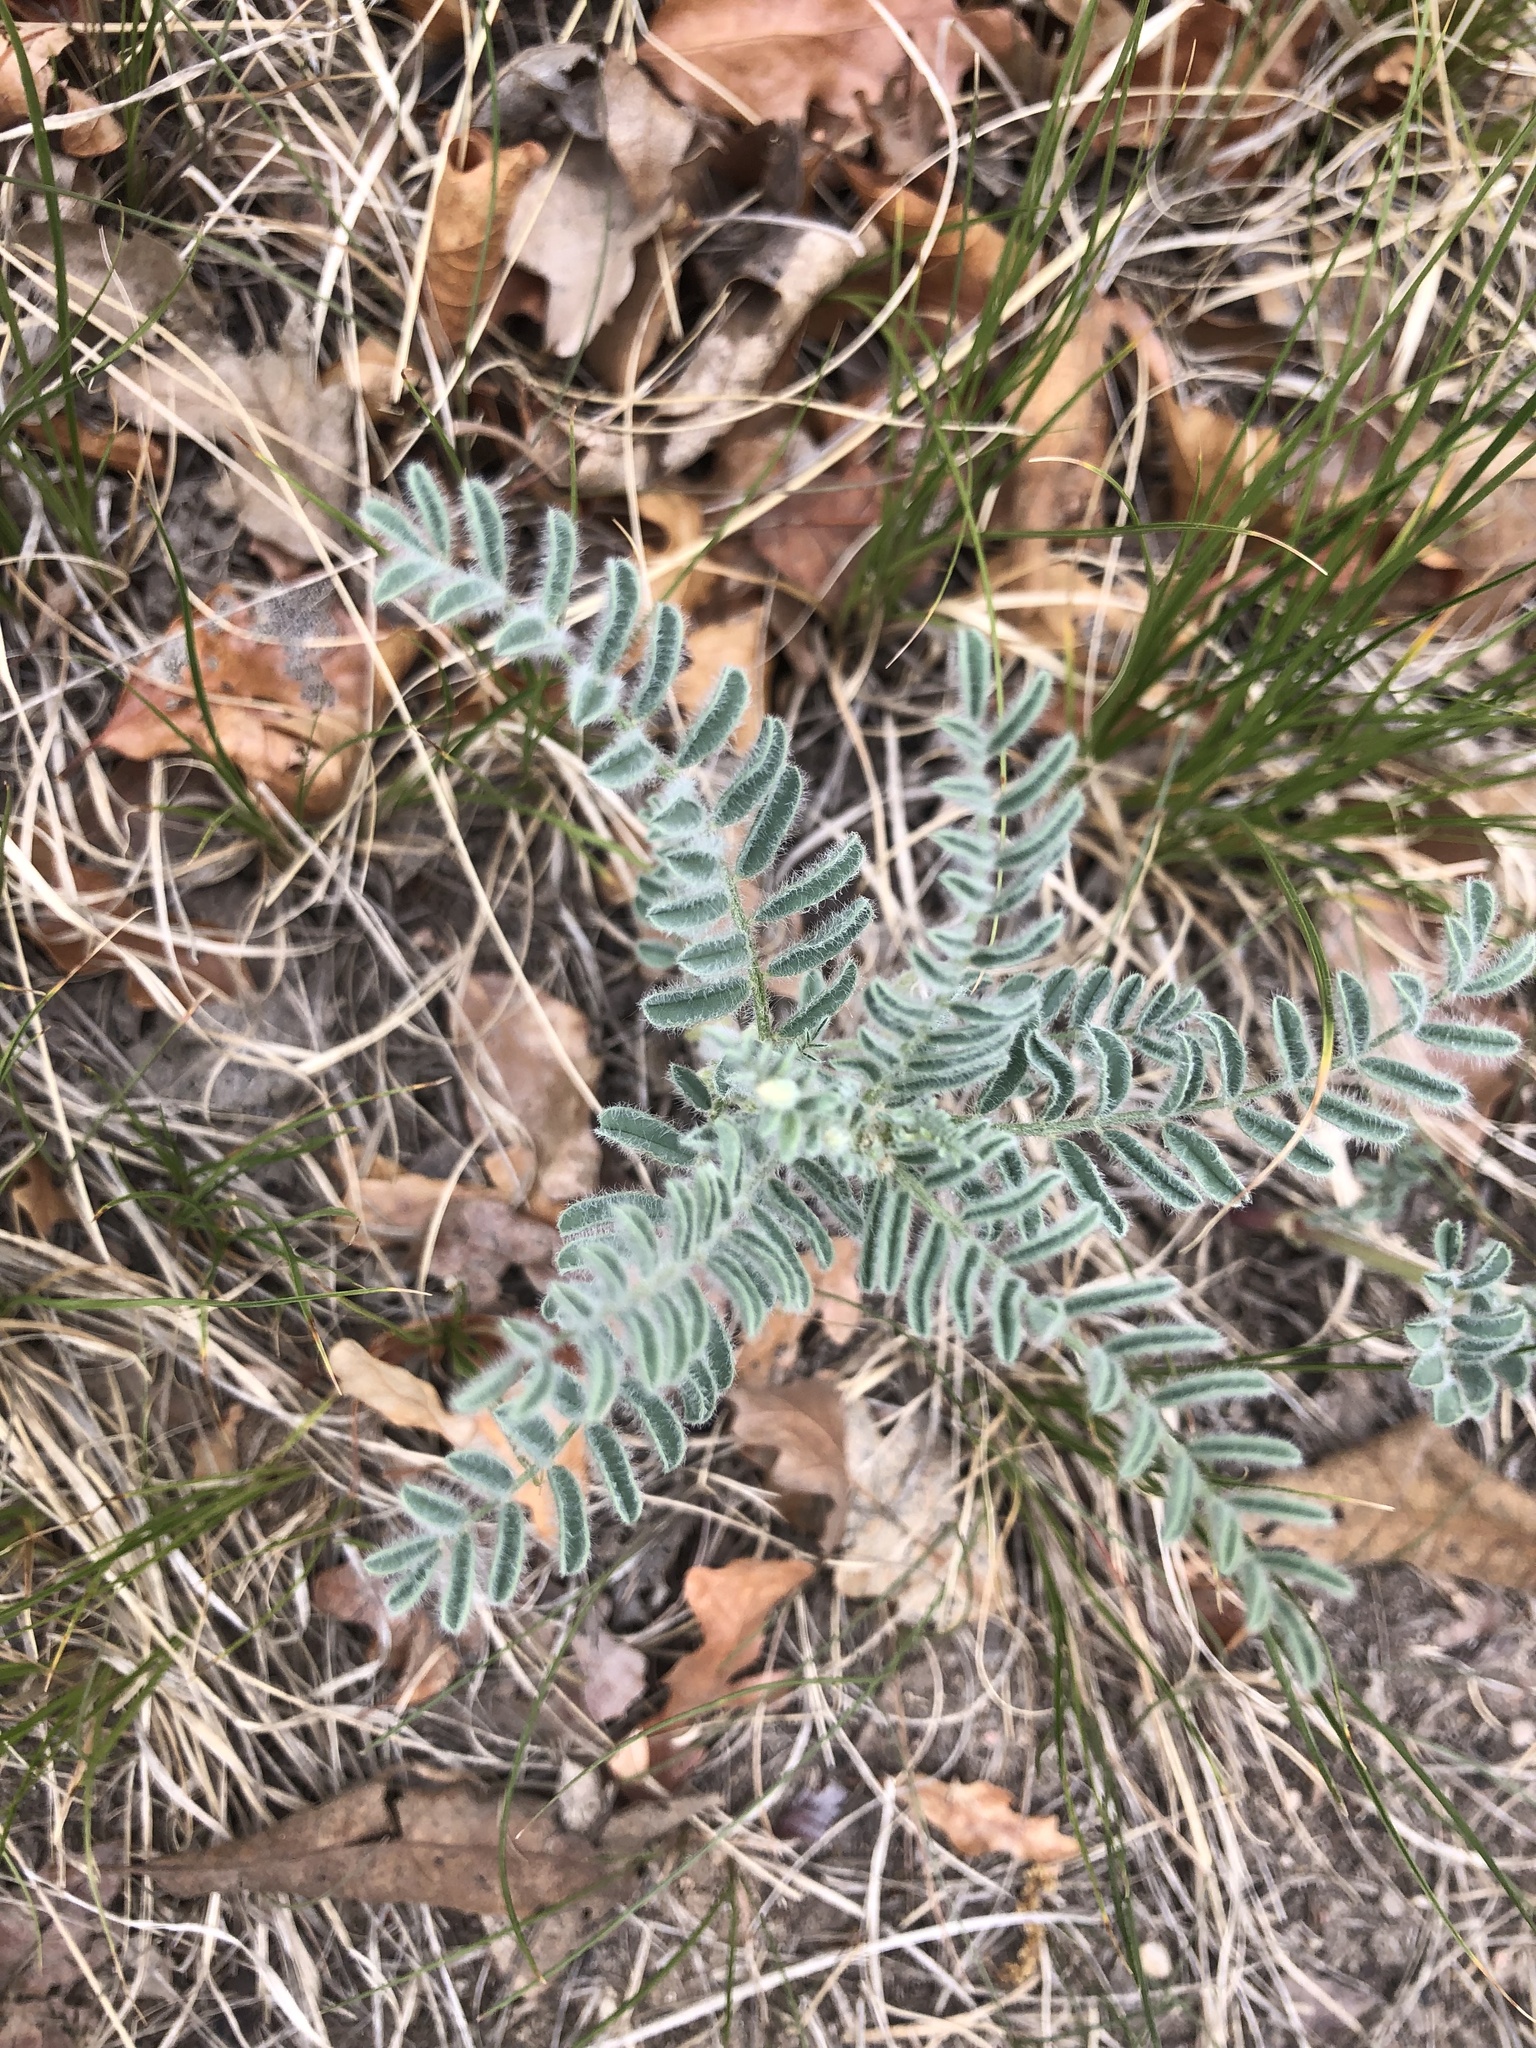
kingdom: Plantae
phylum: Tracheophyta
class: Magnoliopsida
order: Fabales
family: Fabaceae
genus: Astragalus
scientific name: Astragalus drummondii
